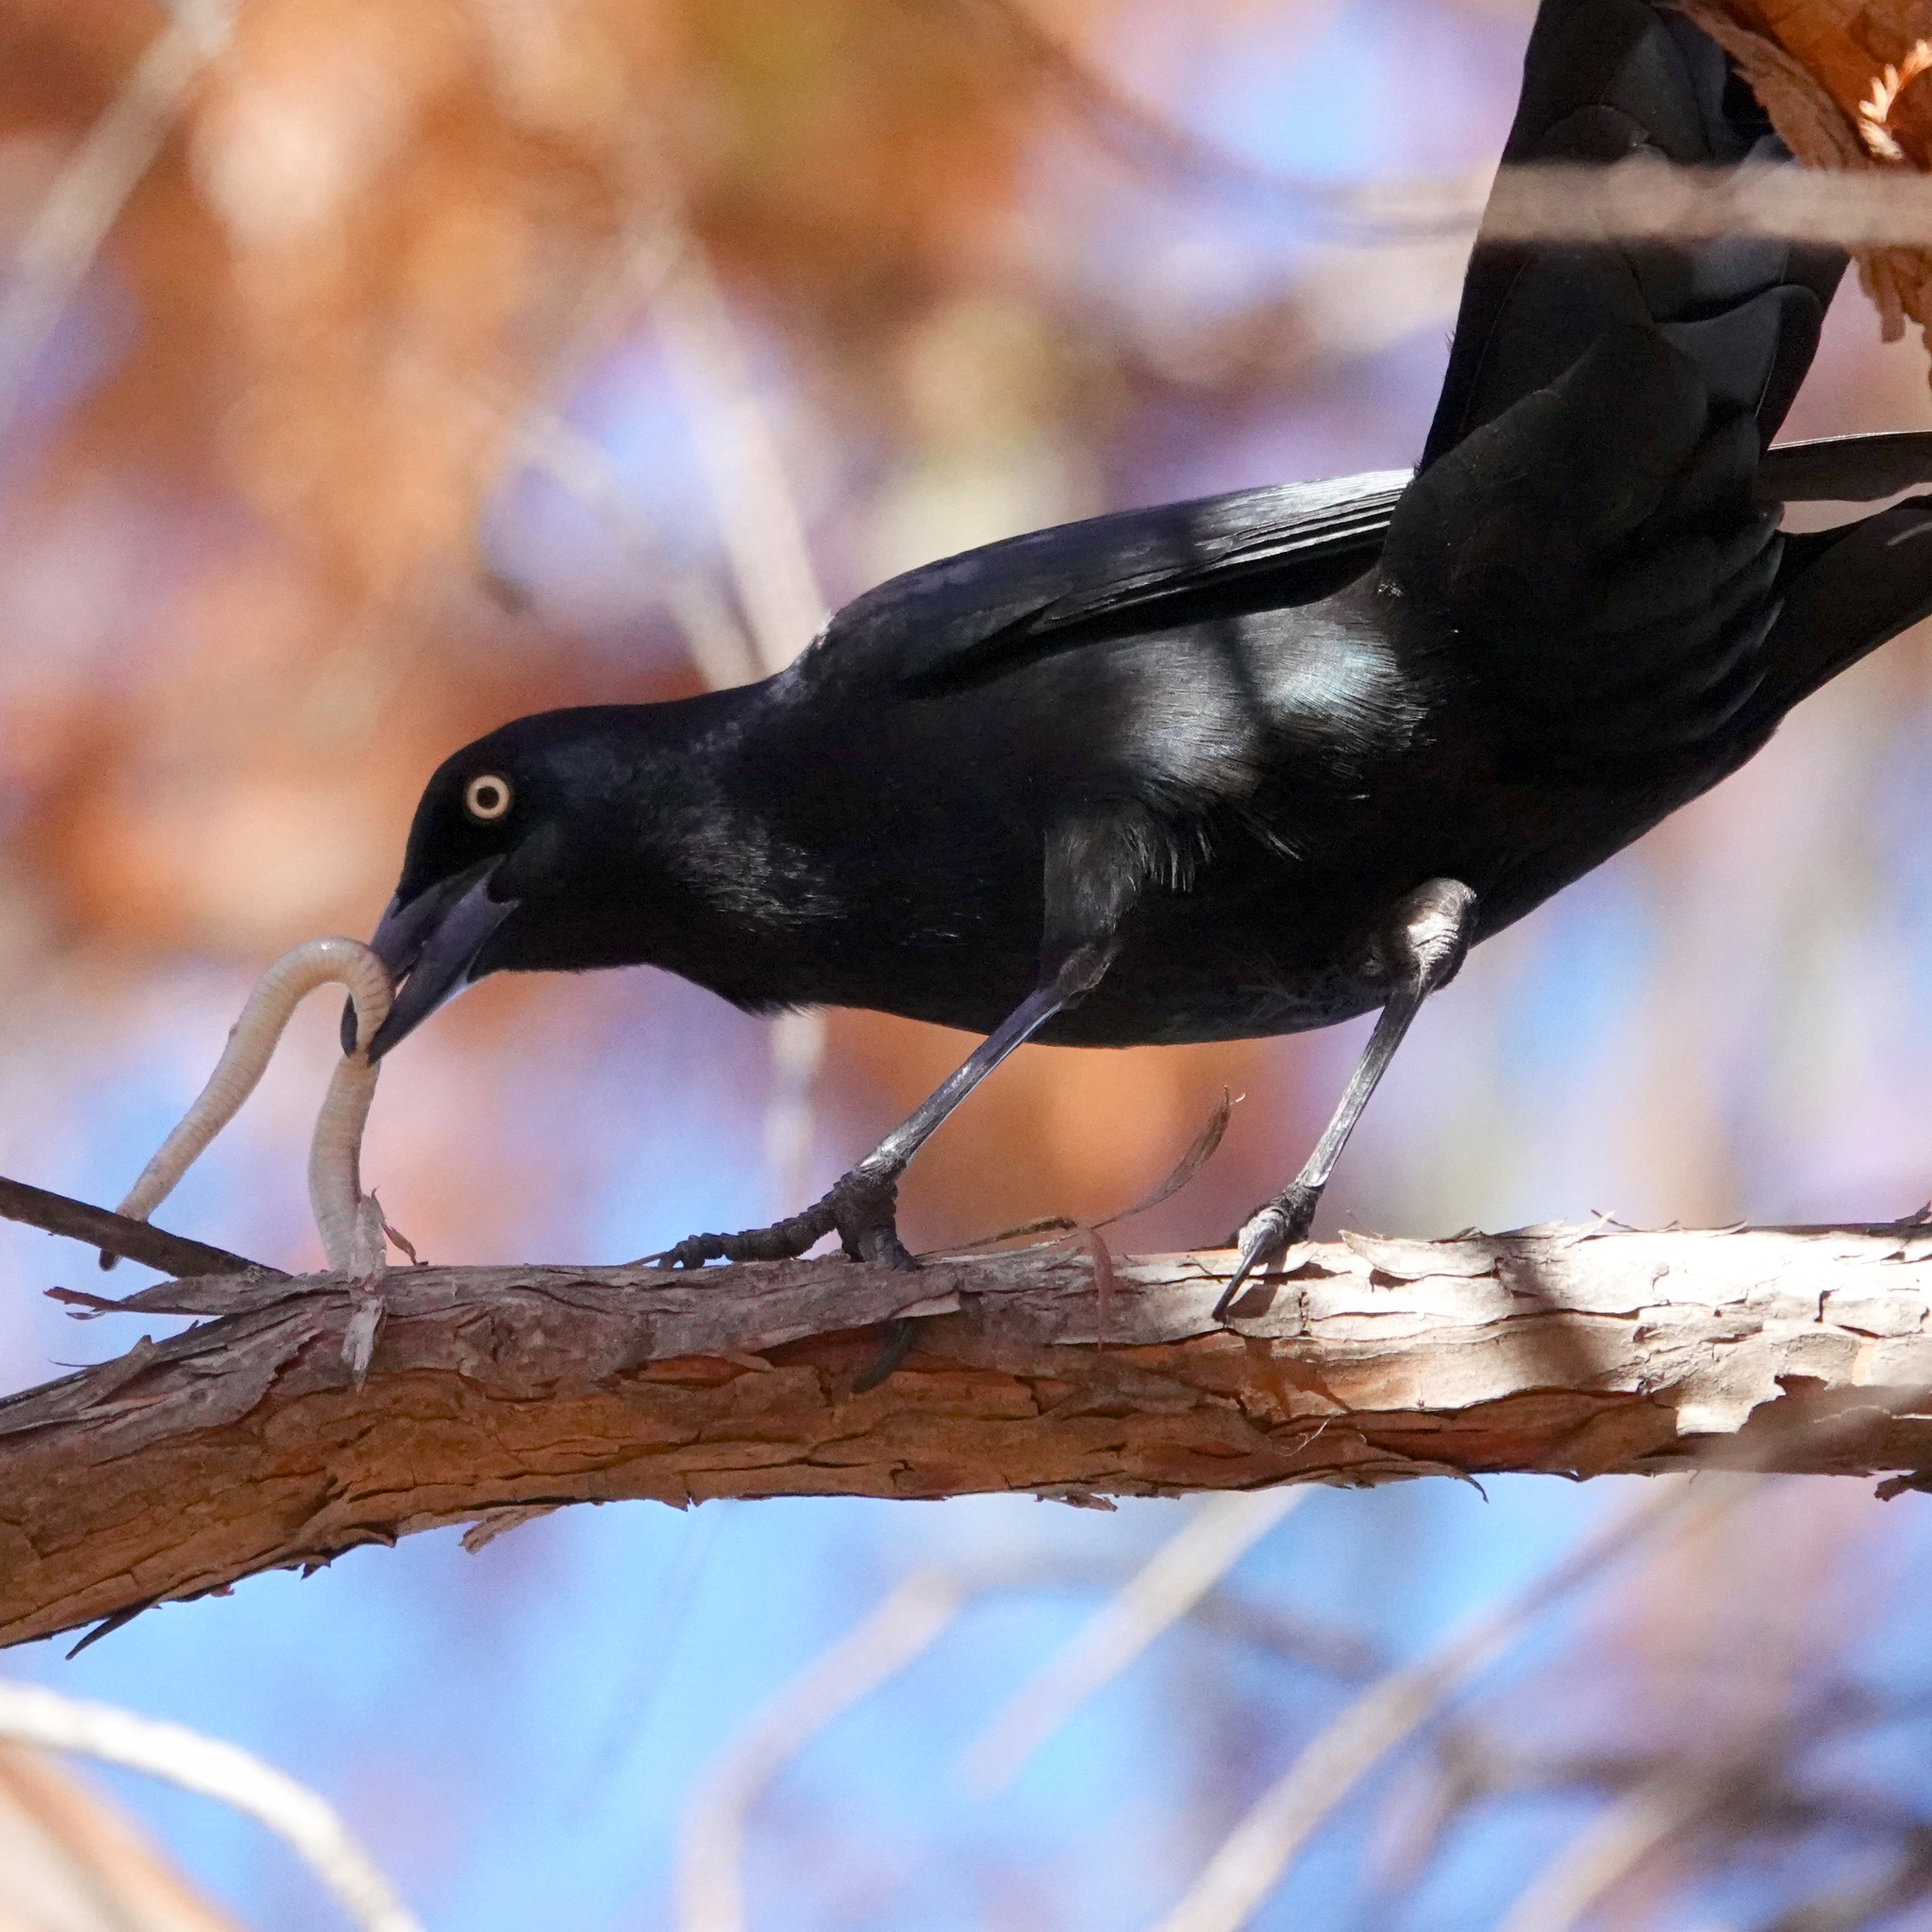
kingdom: Animalia
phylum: Chordata
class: Aves
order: Passeriformes
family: Icteridae
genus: Quiscalus
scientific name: Quiscalus quiscula
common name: Common grackle
